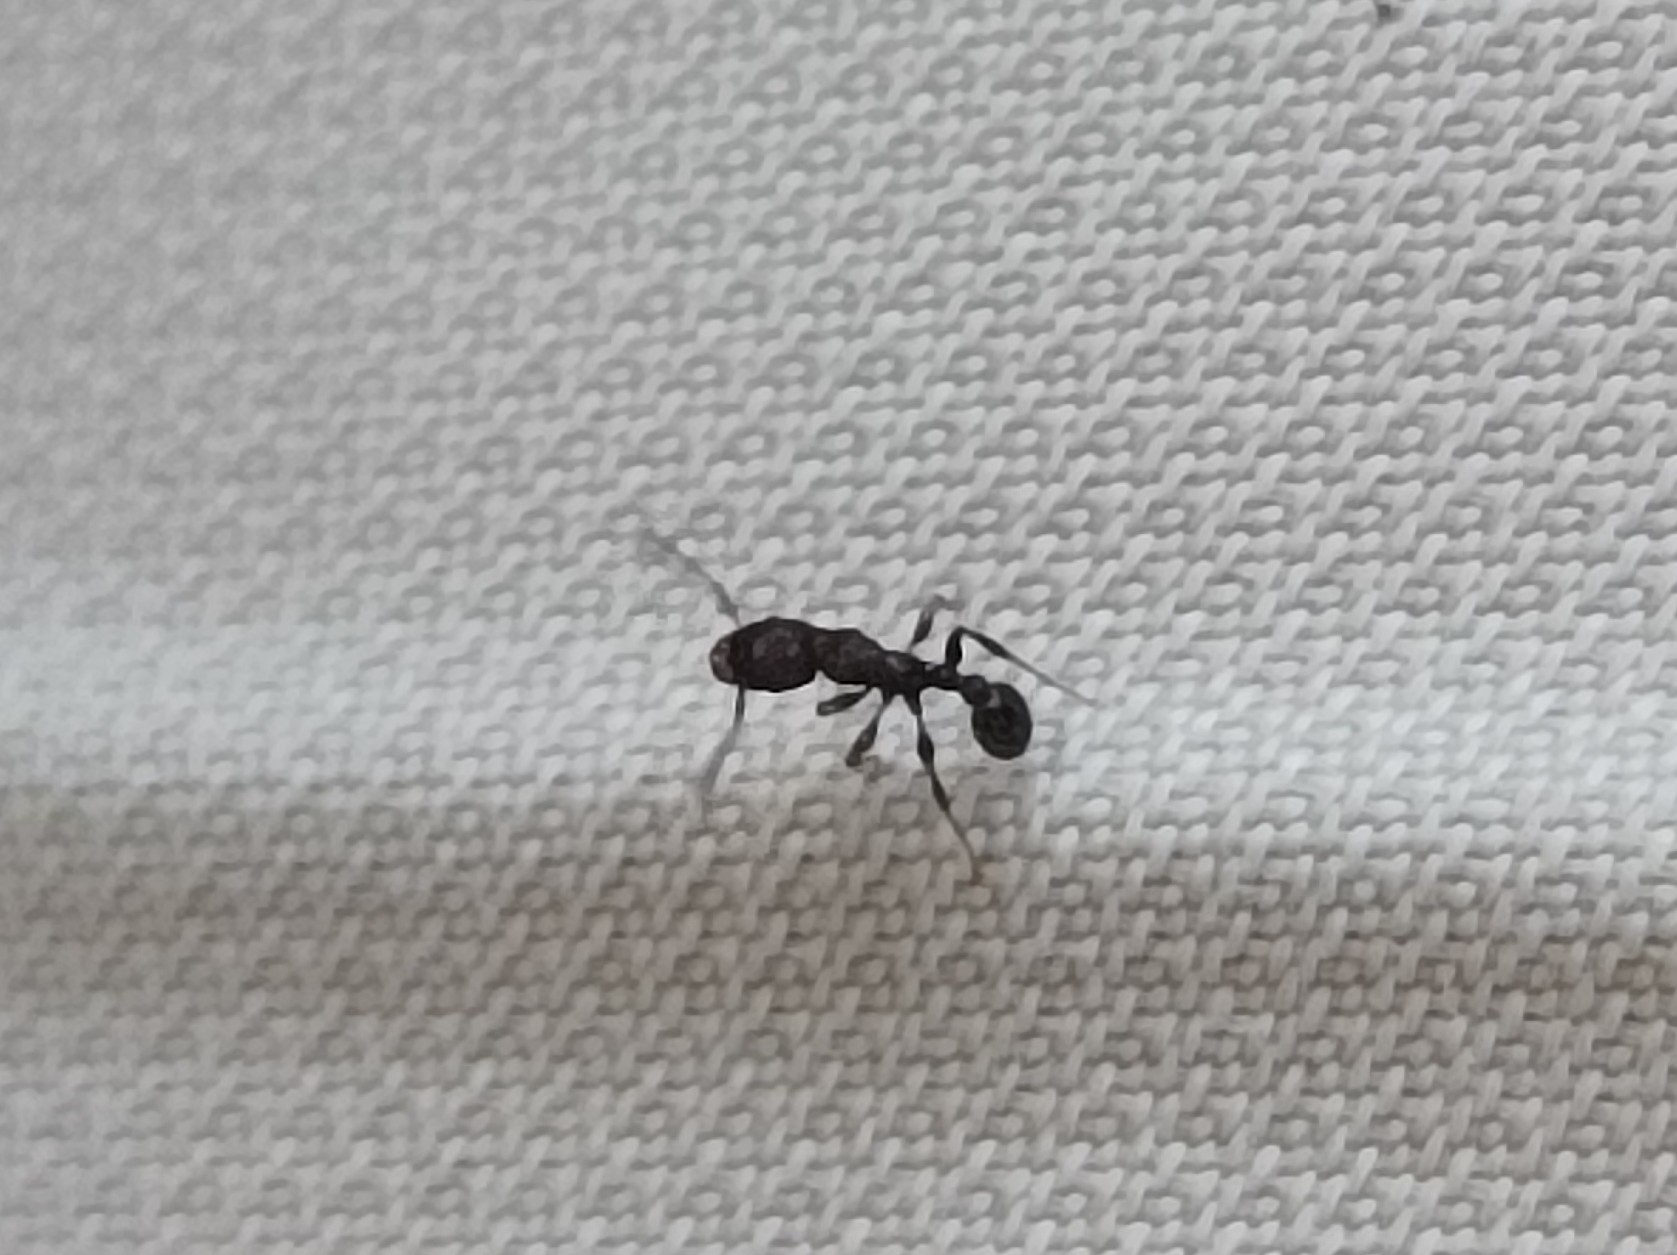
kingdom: Animalia
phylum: Arthropoda
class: Insecta
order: Hymenoptera
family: Formicidae
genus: Tetramorium
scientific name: Tetramorium pacificum
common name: Ant
